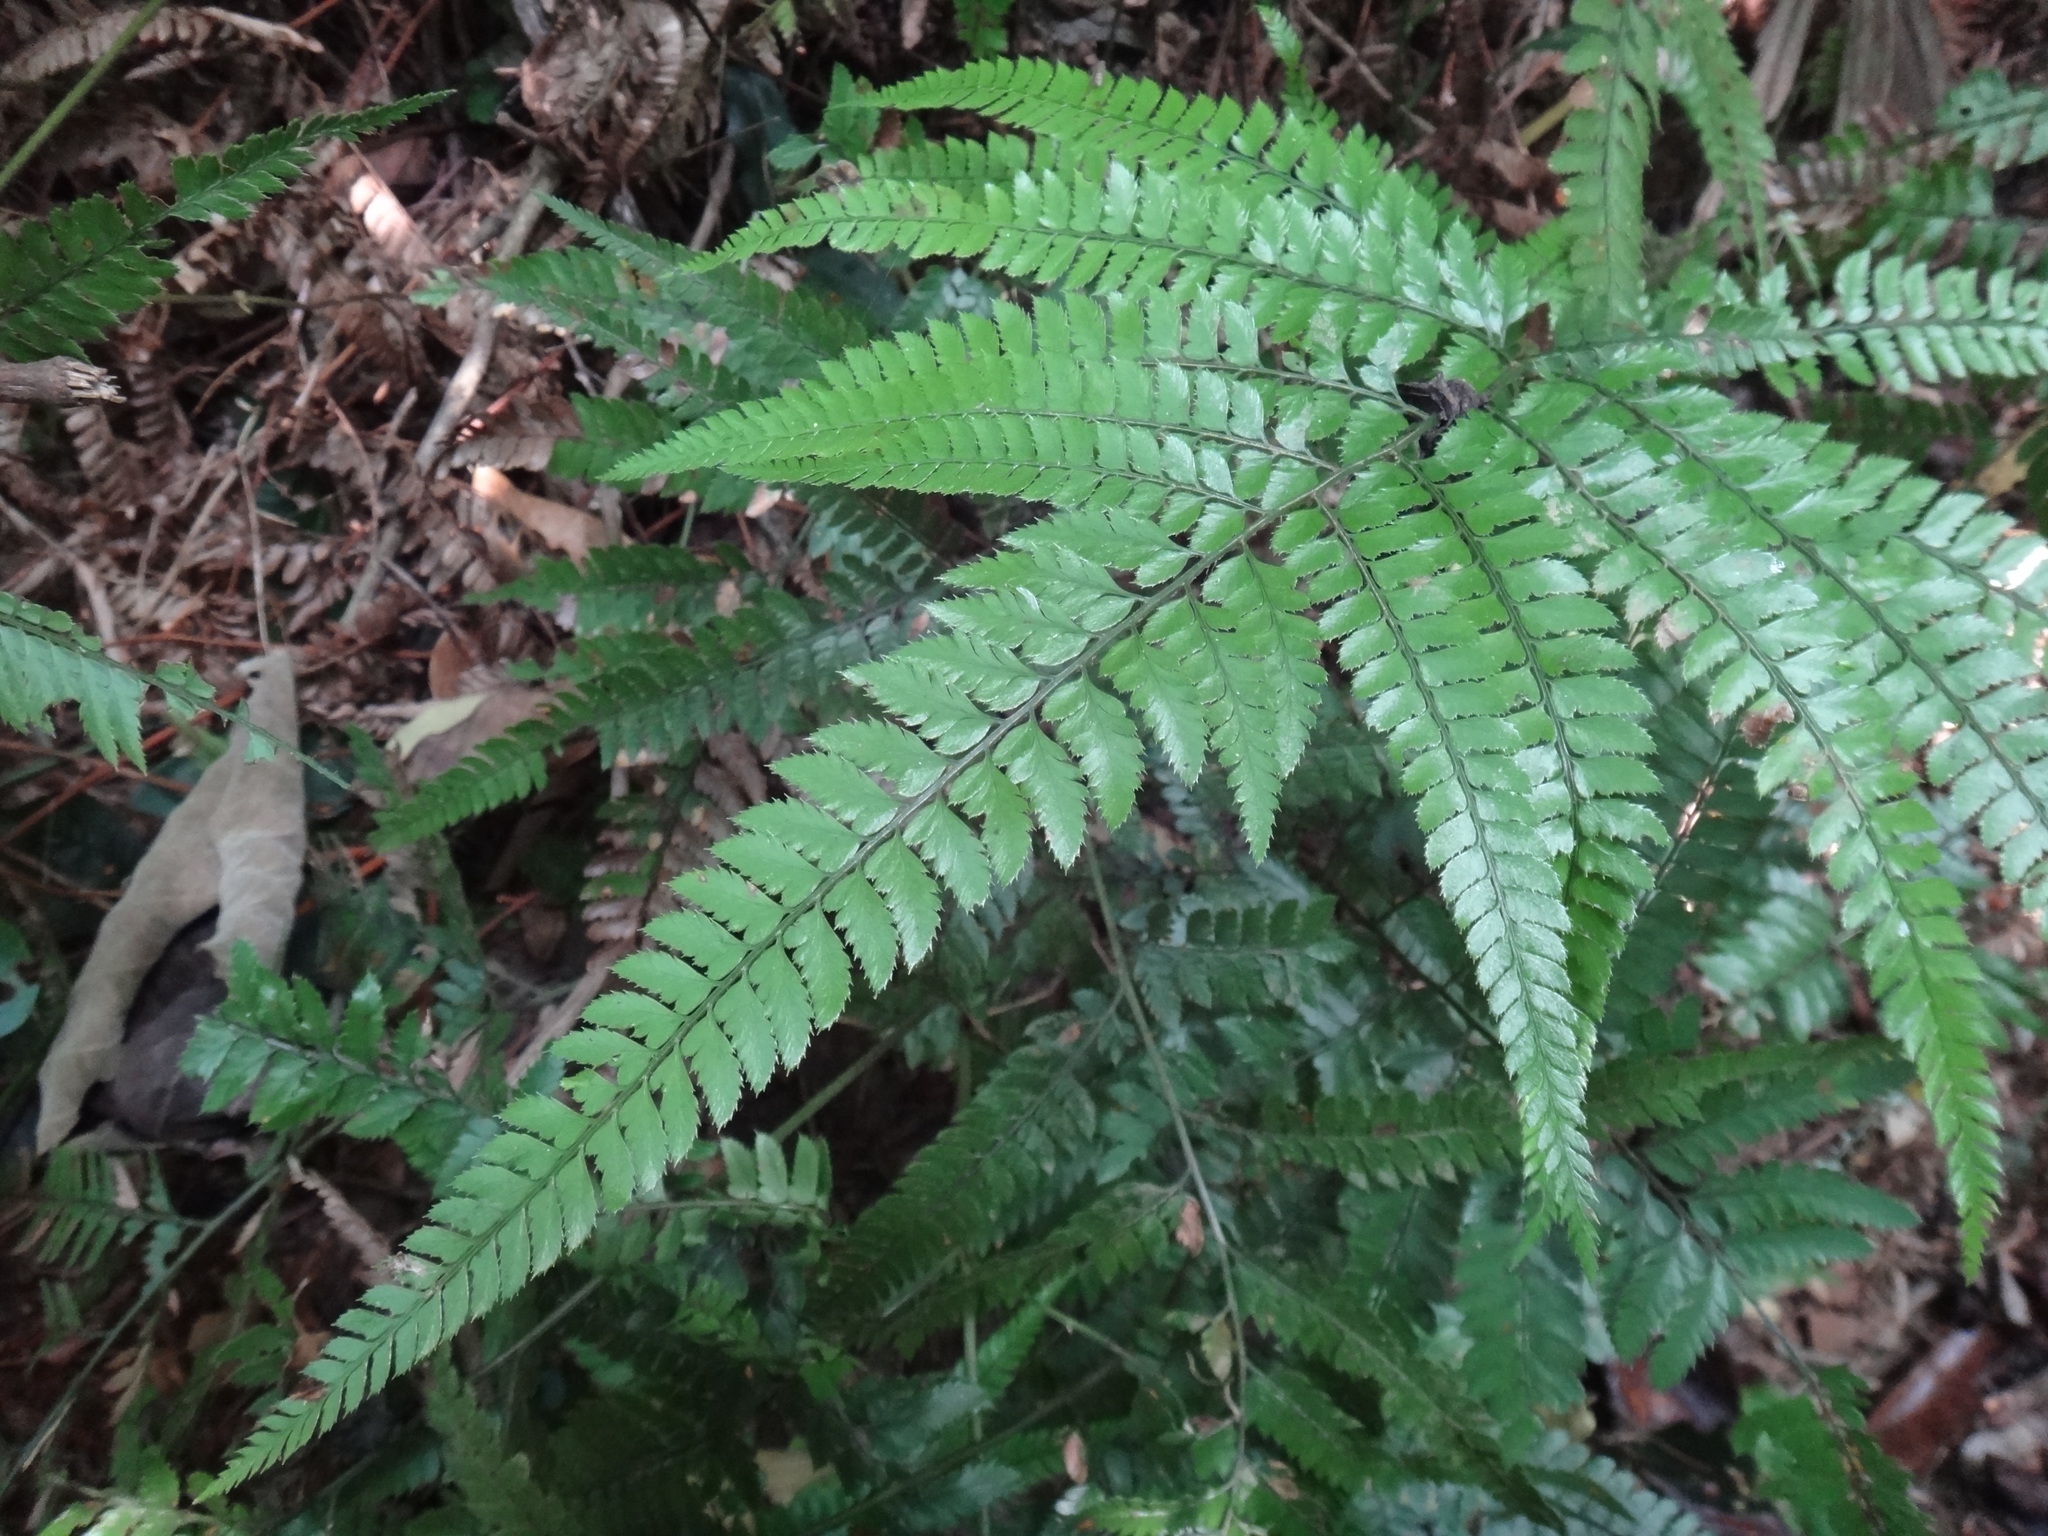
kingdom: Plantae
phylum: Tracheophyta
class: Polypodiopsida
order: Polypodiales
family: Dryopteridaceae
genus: Arachniodes
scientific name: Arachniodes aristata
